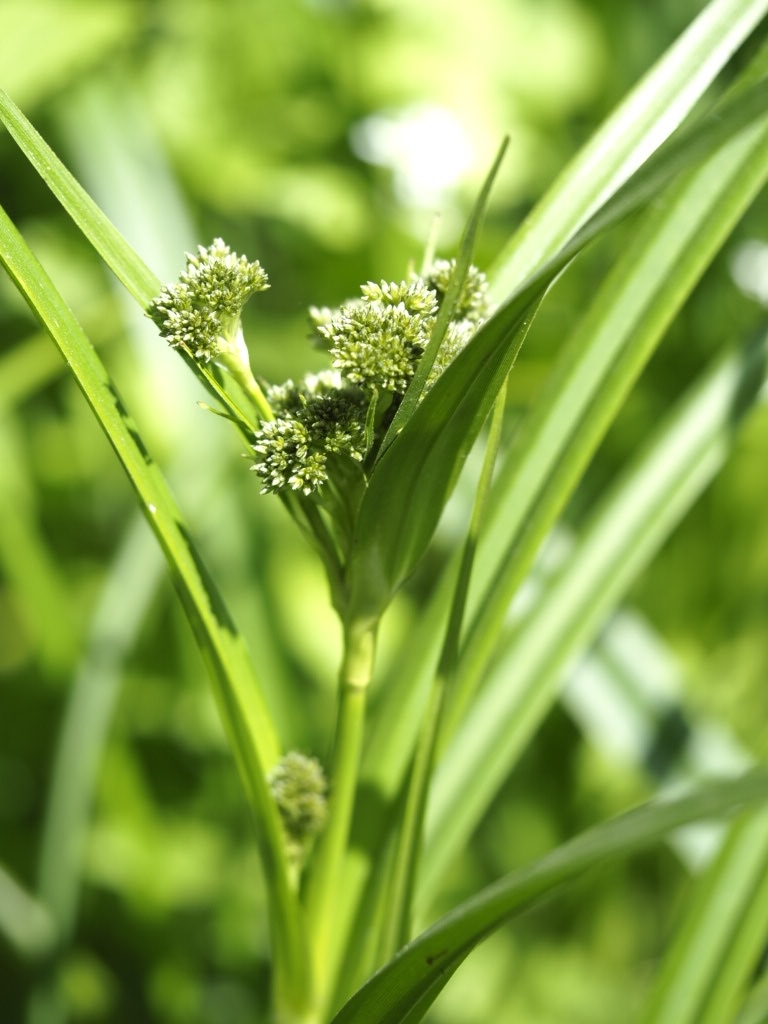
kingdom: Plantae
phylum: Tracheophyta
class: Liliopsida
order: Poales
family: Cyperaceae
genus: Scirpus
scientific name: Scirpus sylvaticus
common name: Wood club-rush
